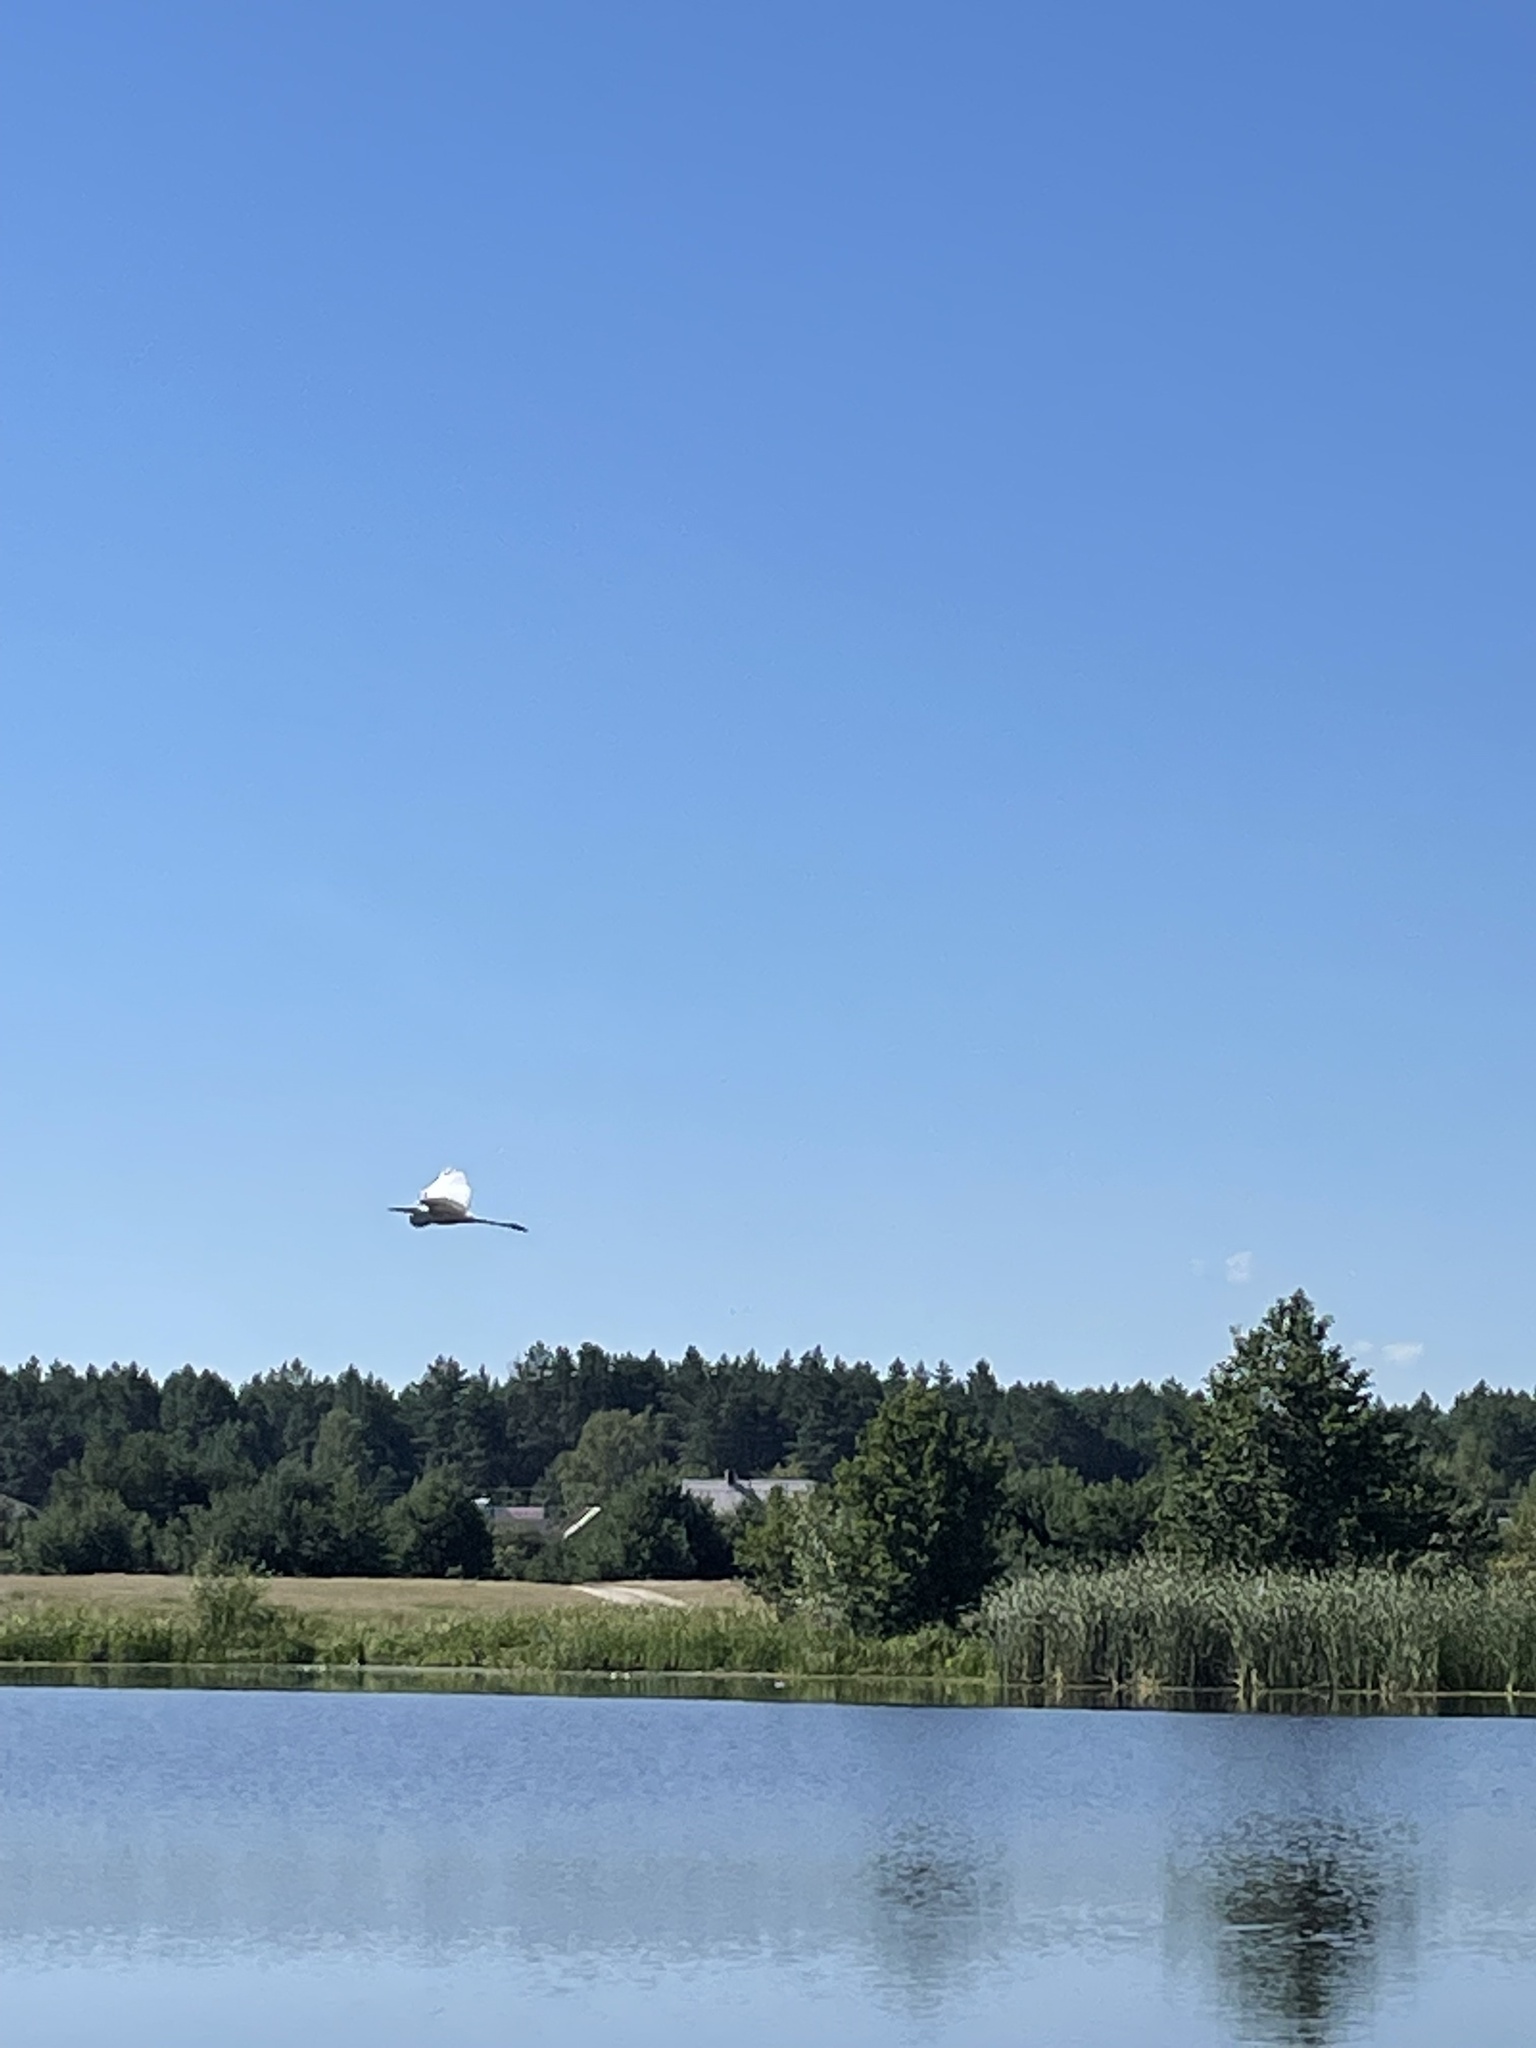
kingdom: Animalia
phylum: Chordata
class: Aves
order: Pelecaniformes
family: Ardeidae
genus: Ardea
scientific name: Ardea alba
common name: Great egret
